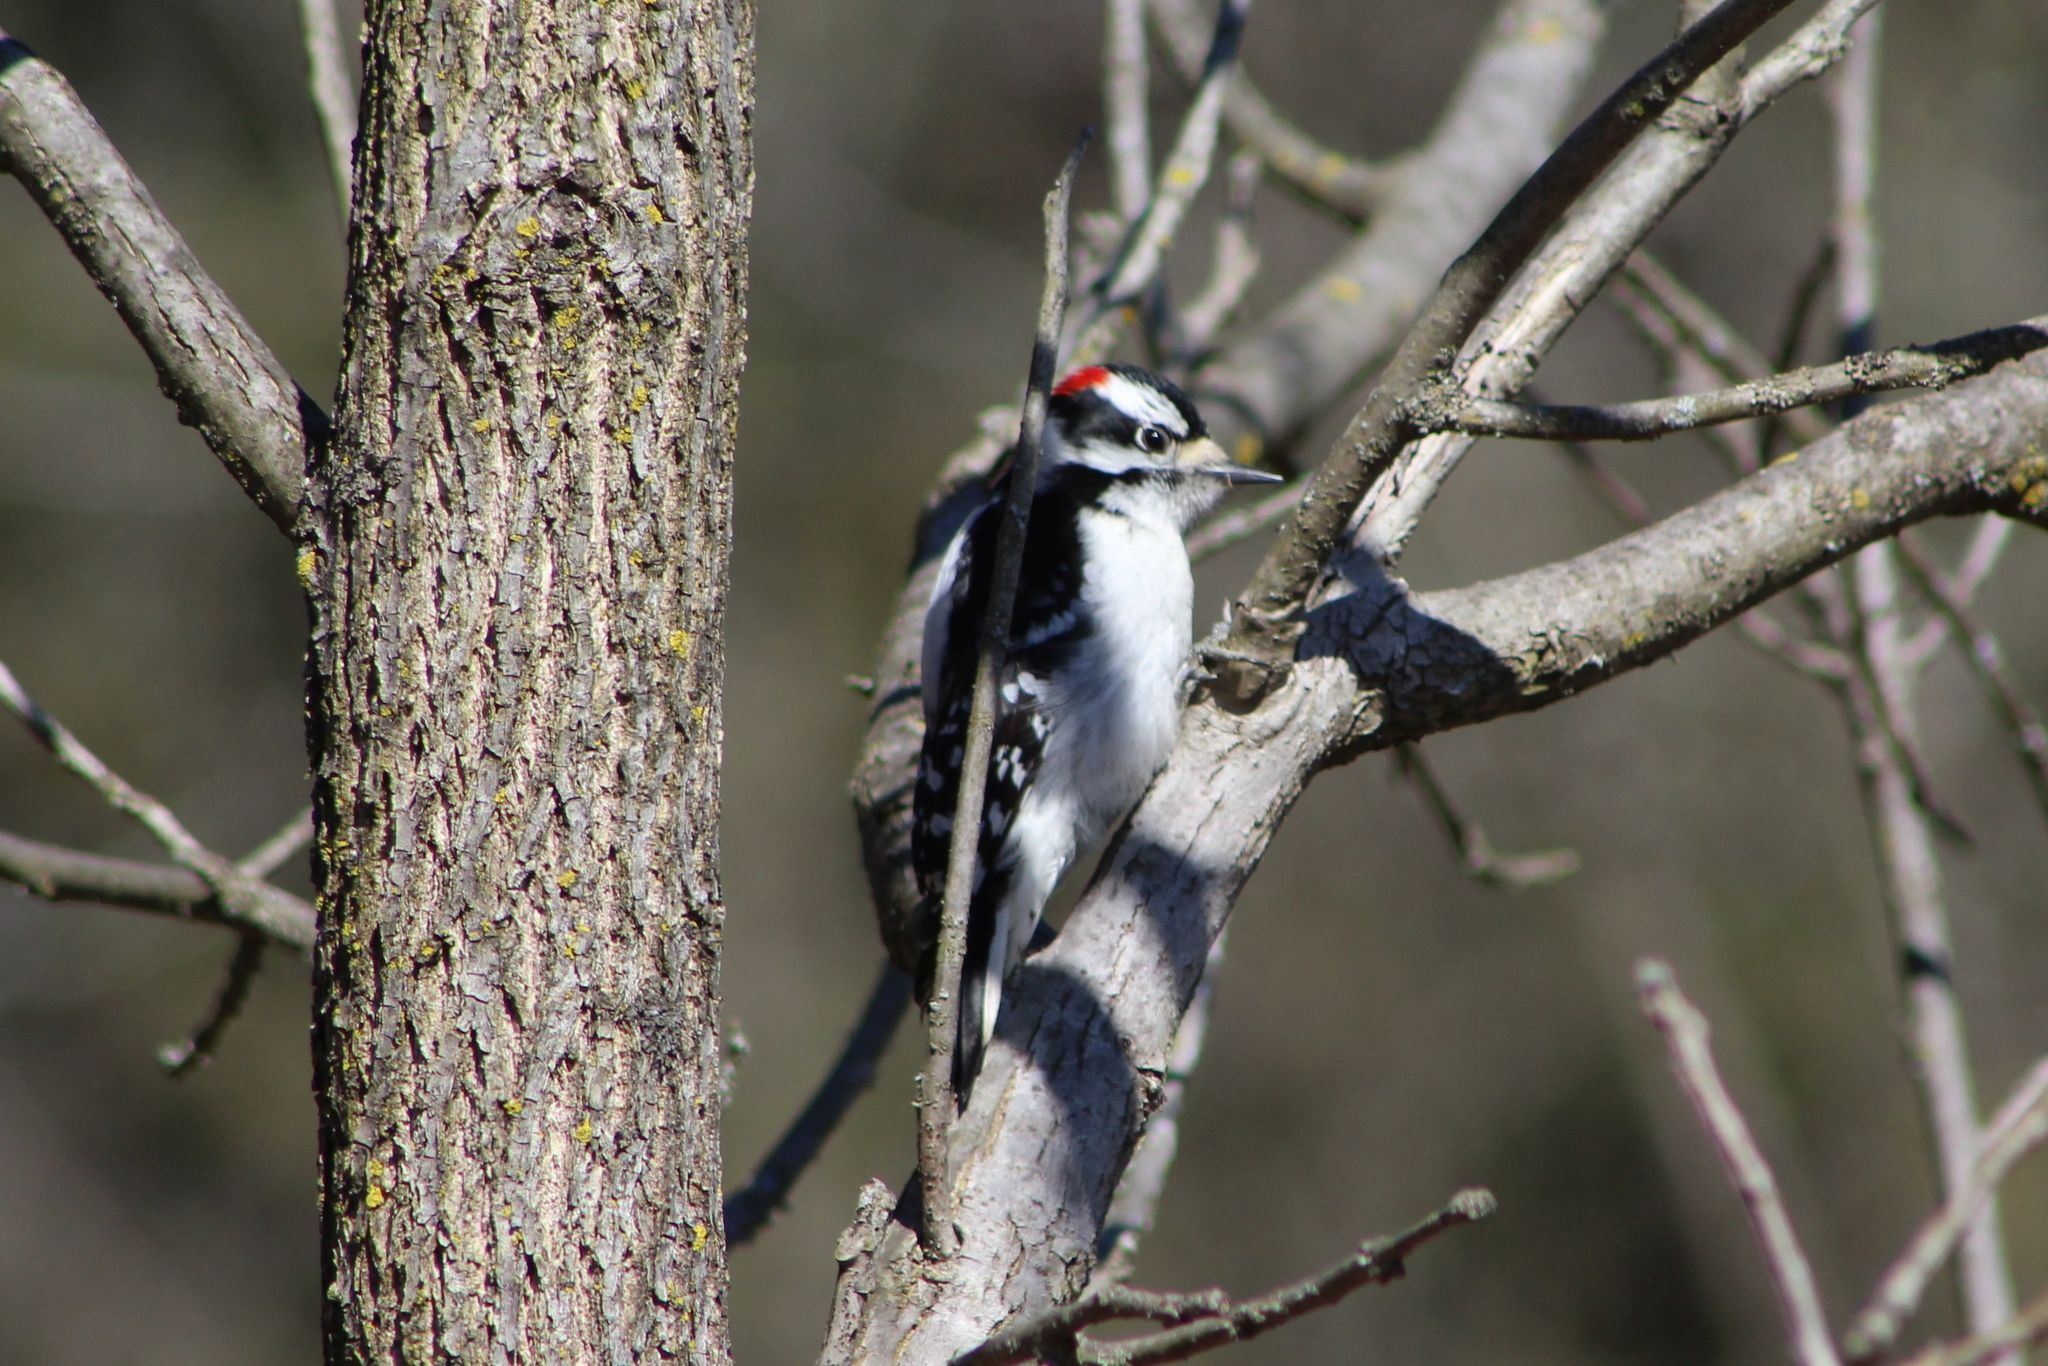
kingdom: Animalia
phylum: Chordata
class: Aves
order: Piciformes
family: Picidae
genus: Dryobates
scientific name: Dryobates pubescens
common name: Downy woodpecker
